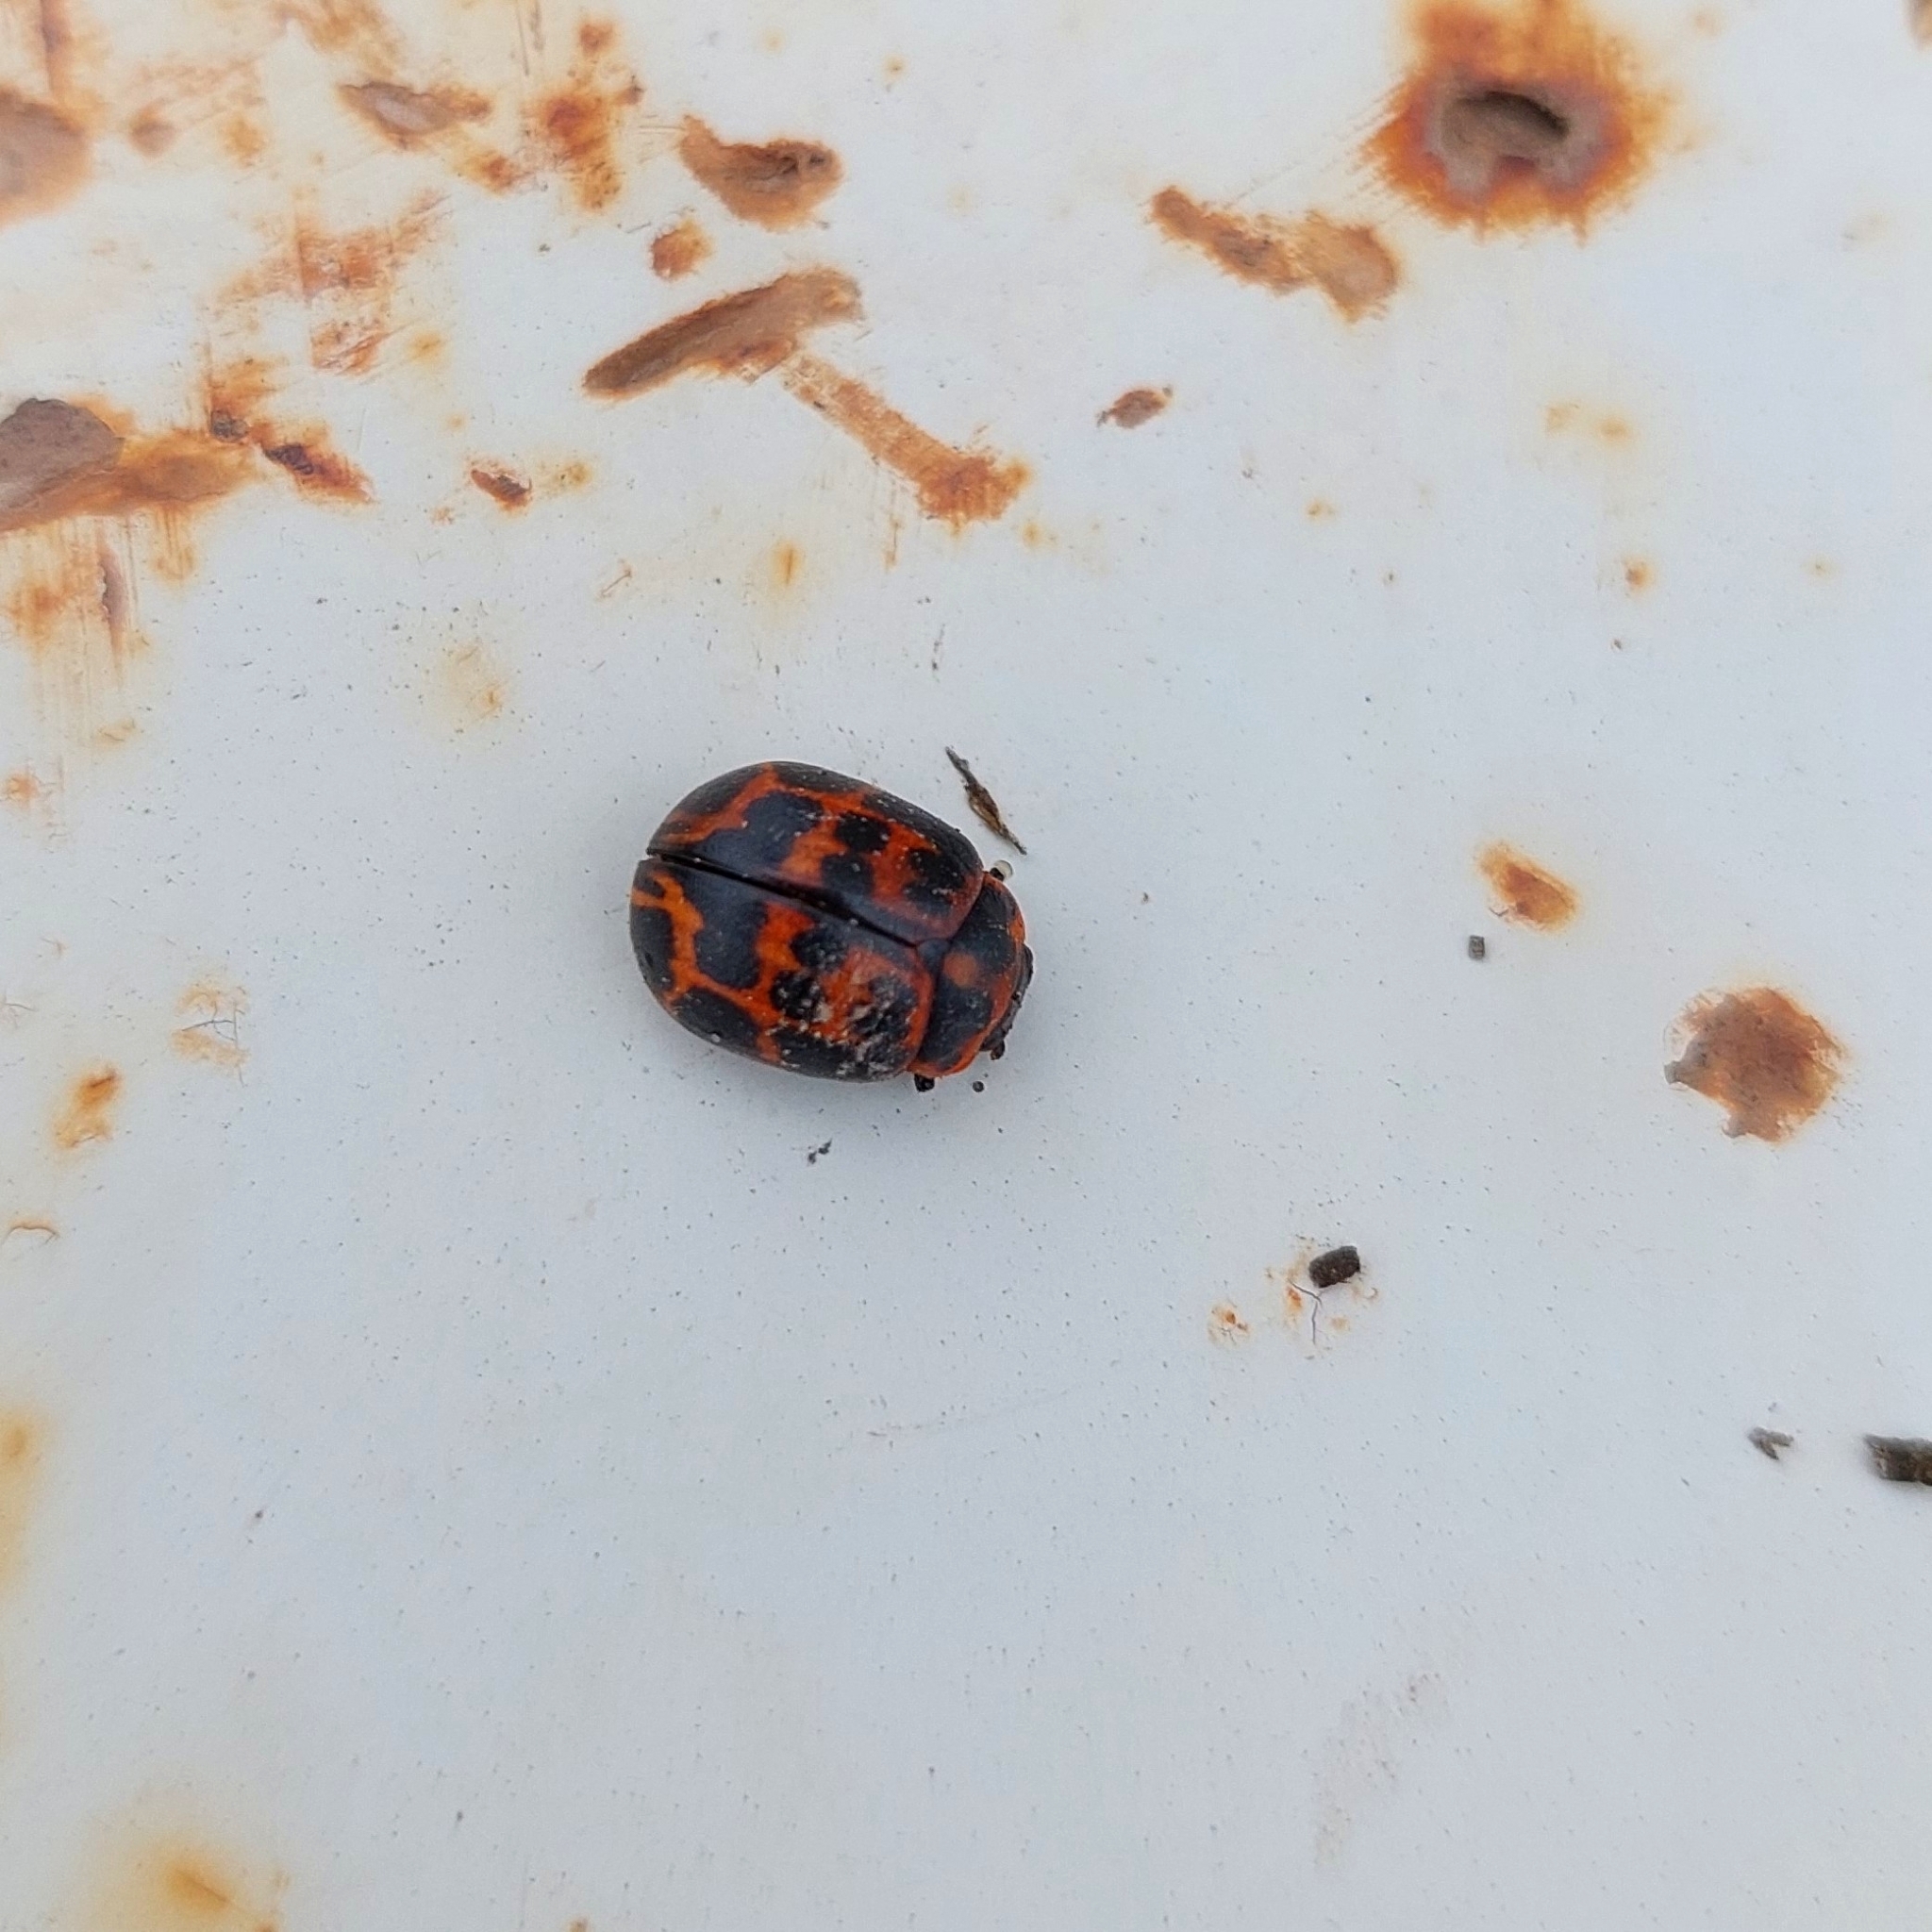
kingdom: Animalia
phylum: Arthropoda
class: Insecta
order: Coleoptera
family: Chrysomelidae
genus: Platyphora
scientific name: Platyphora
